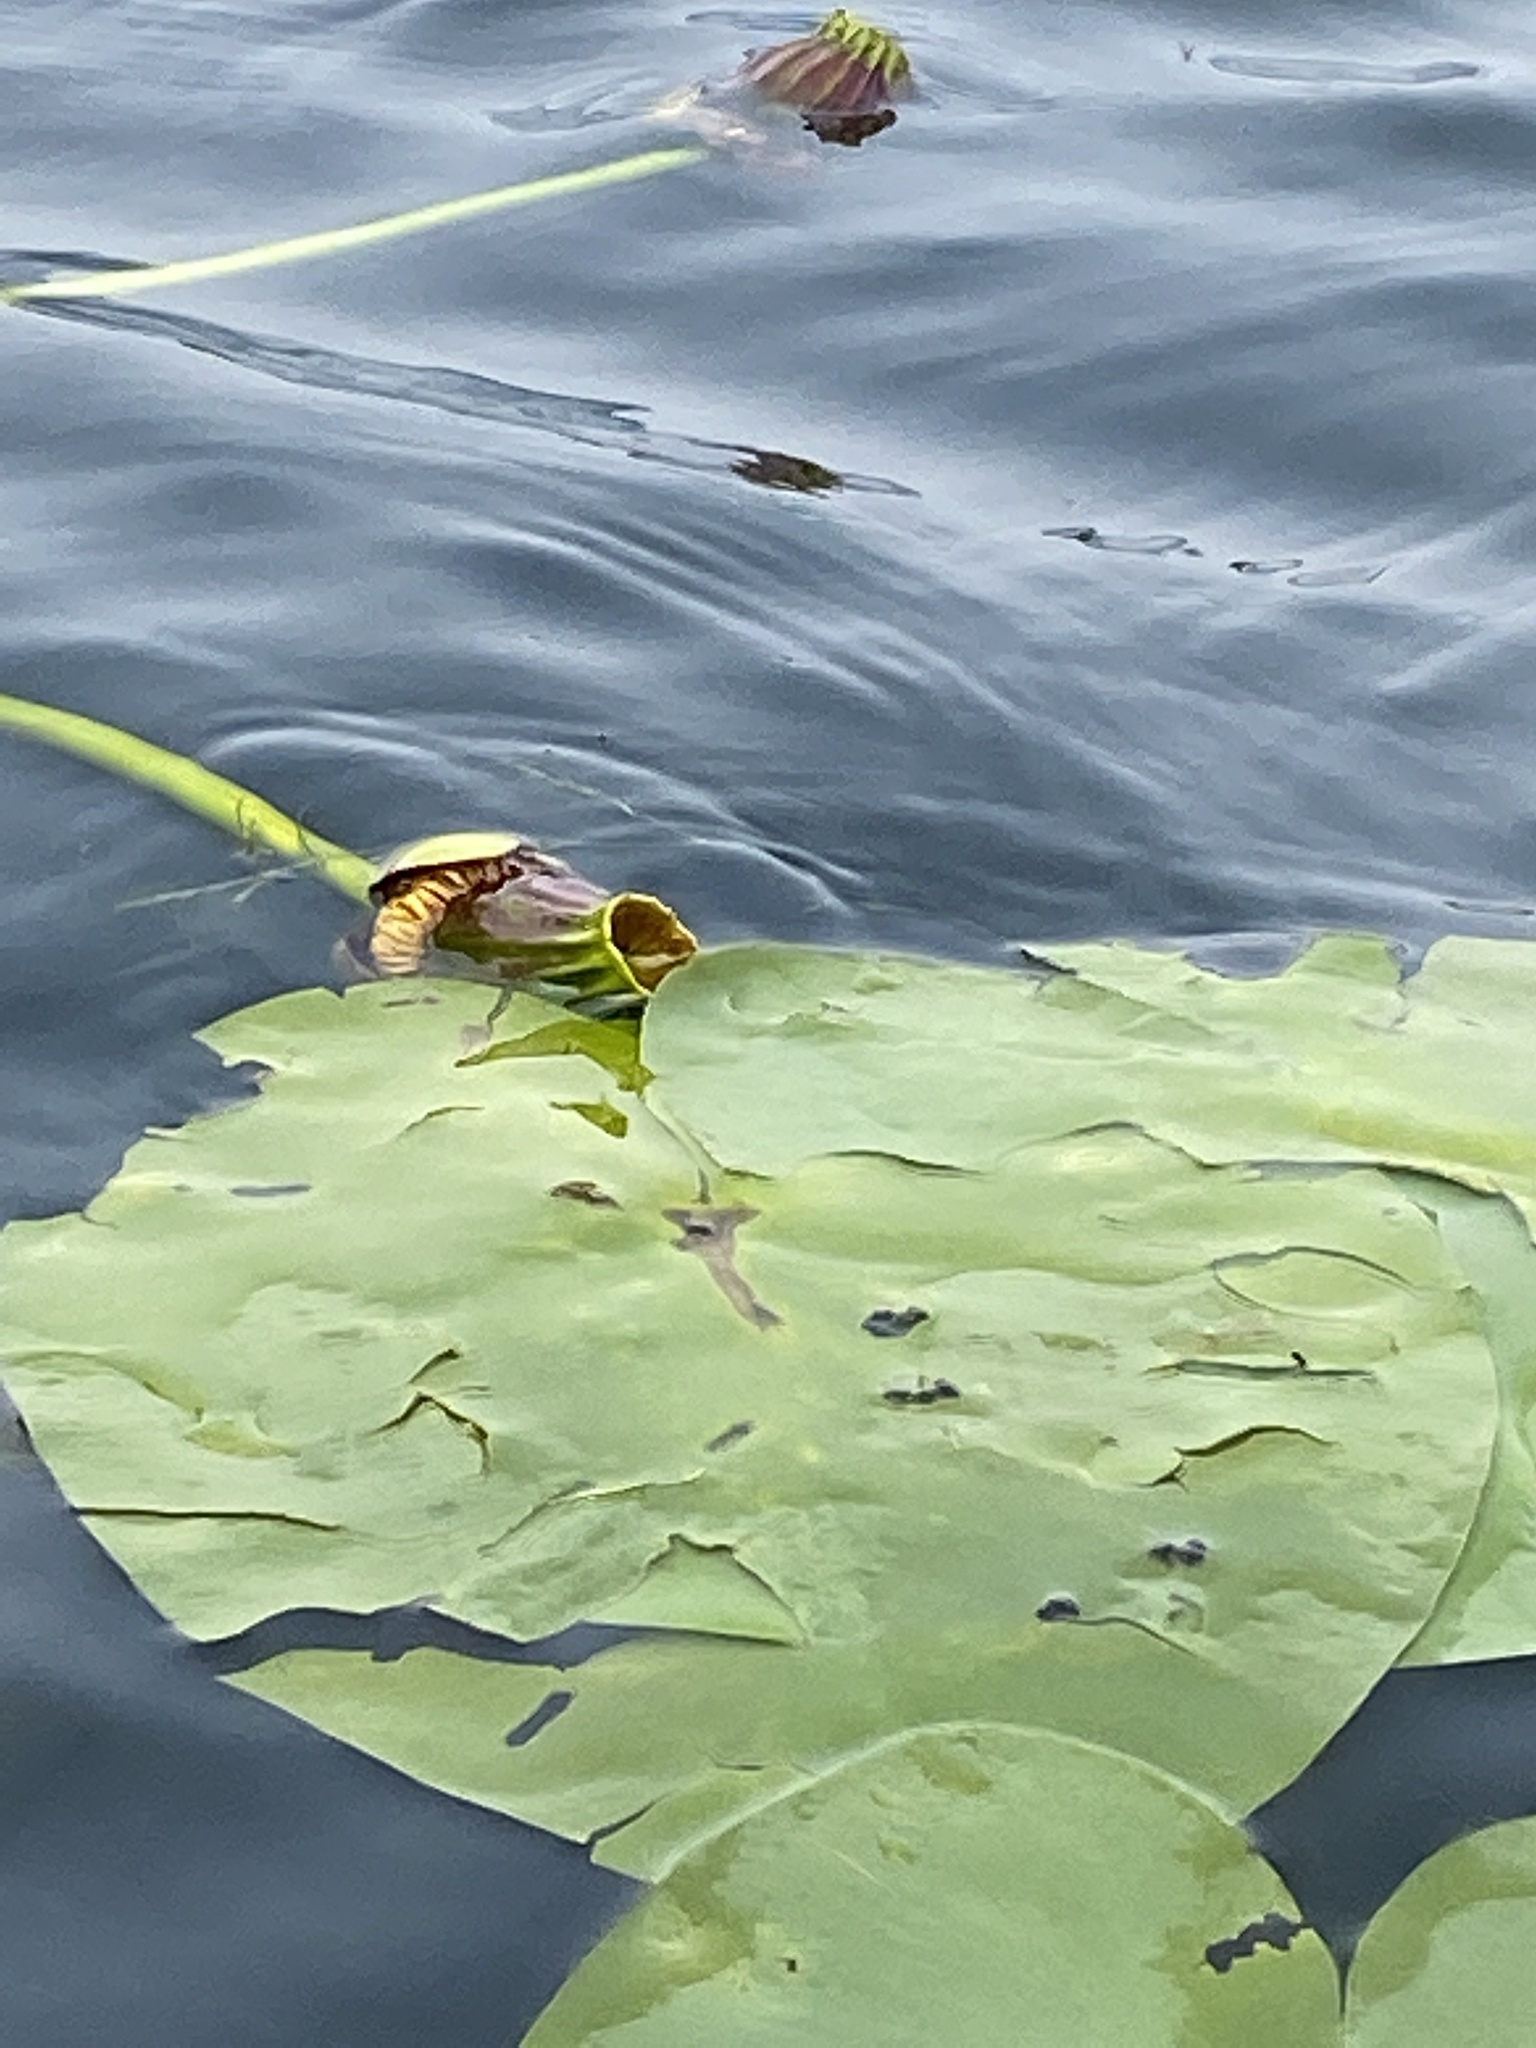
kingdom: Plantae
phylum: Tracheophyta
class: Magnoliopsida
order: Nymphaeales
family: Nymphaeaceae
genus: Nuphar
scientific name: Nuphar variegata
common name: Beaver-root
